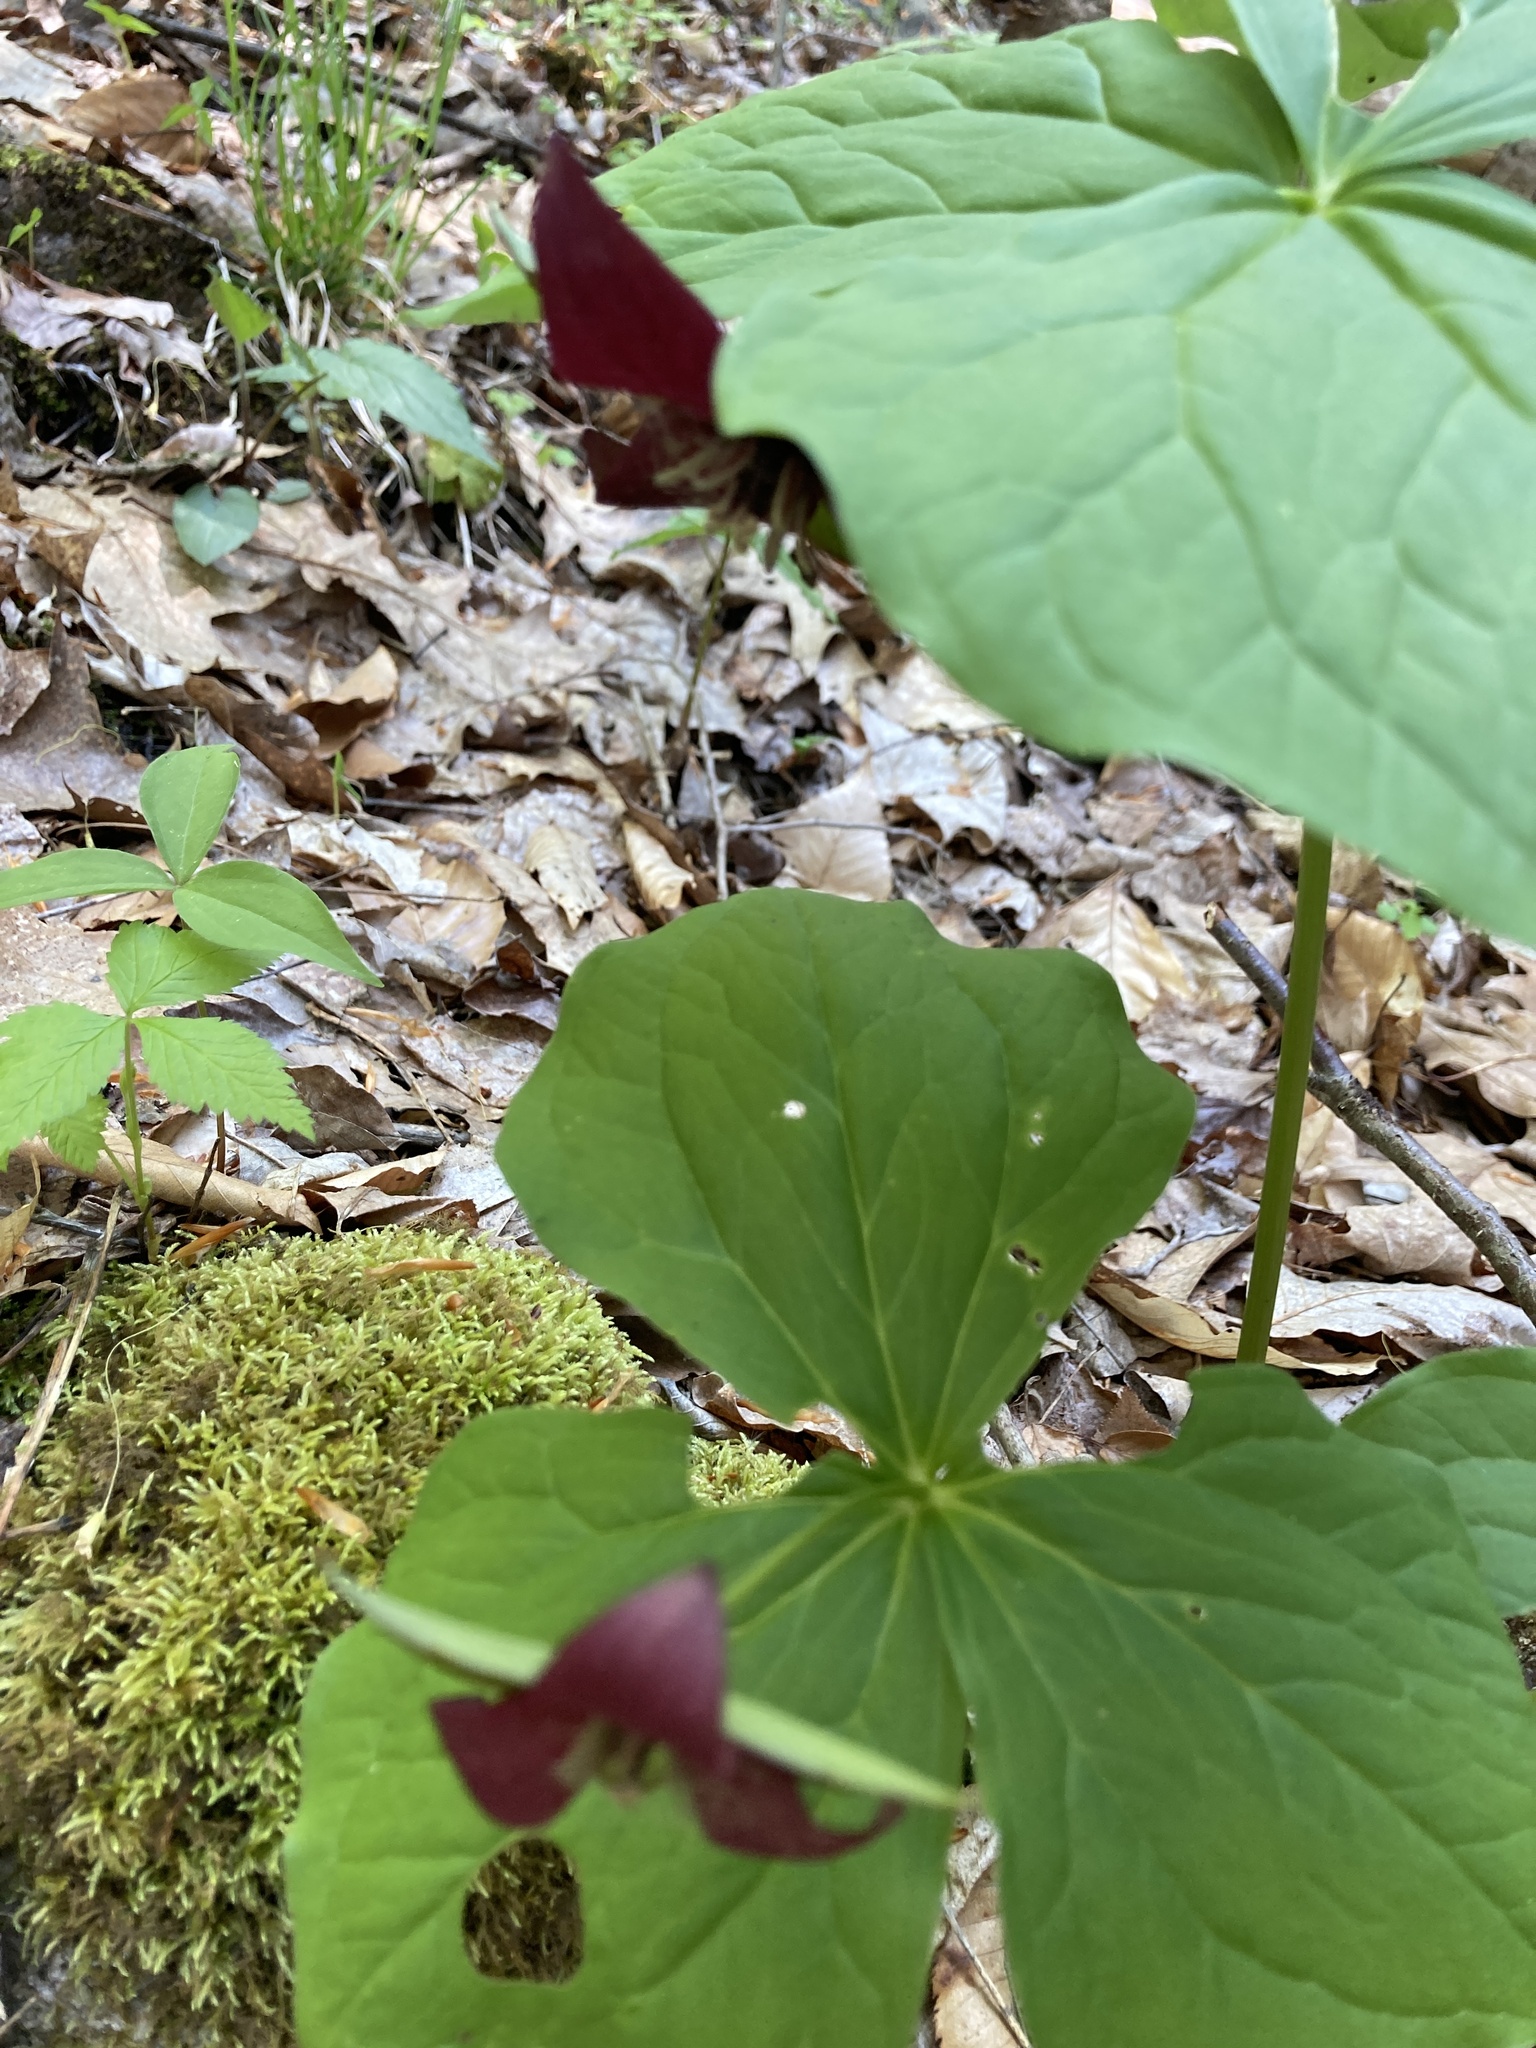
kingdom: Plantae
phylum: Tracheophyta
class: Liliopsida
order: Liliales
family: Melanthiaceae
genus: Trillium
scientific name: Trillium erectum
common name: Purple trillium
